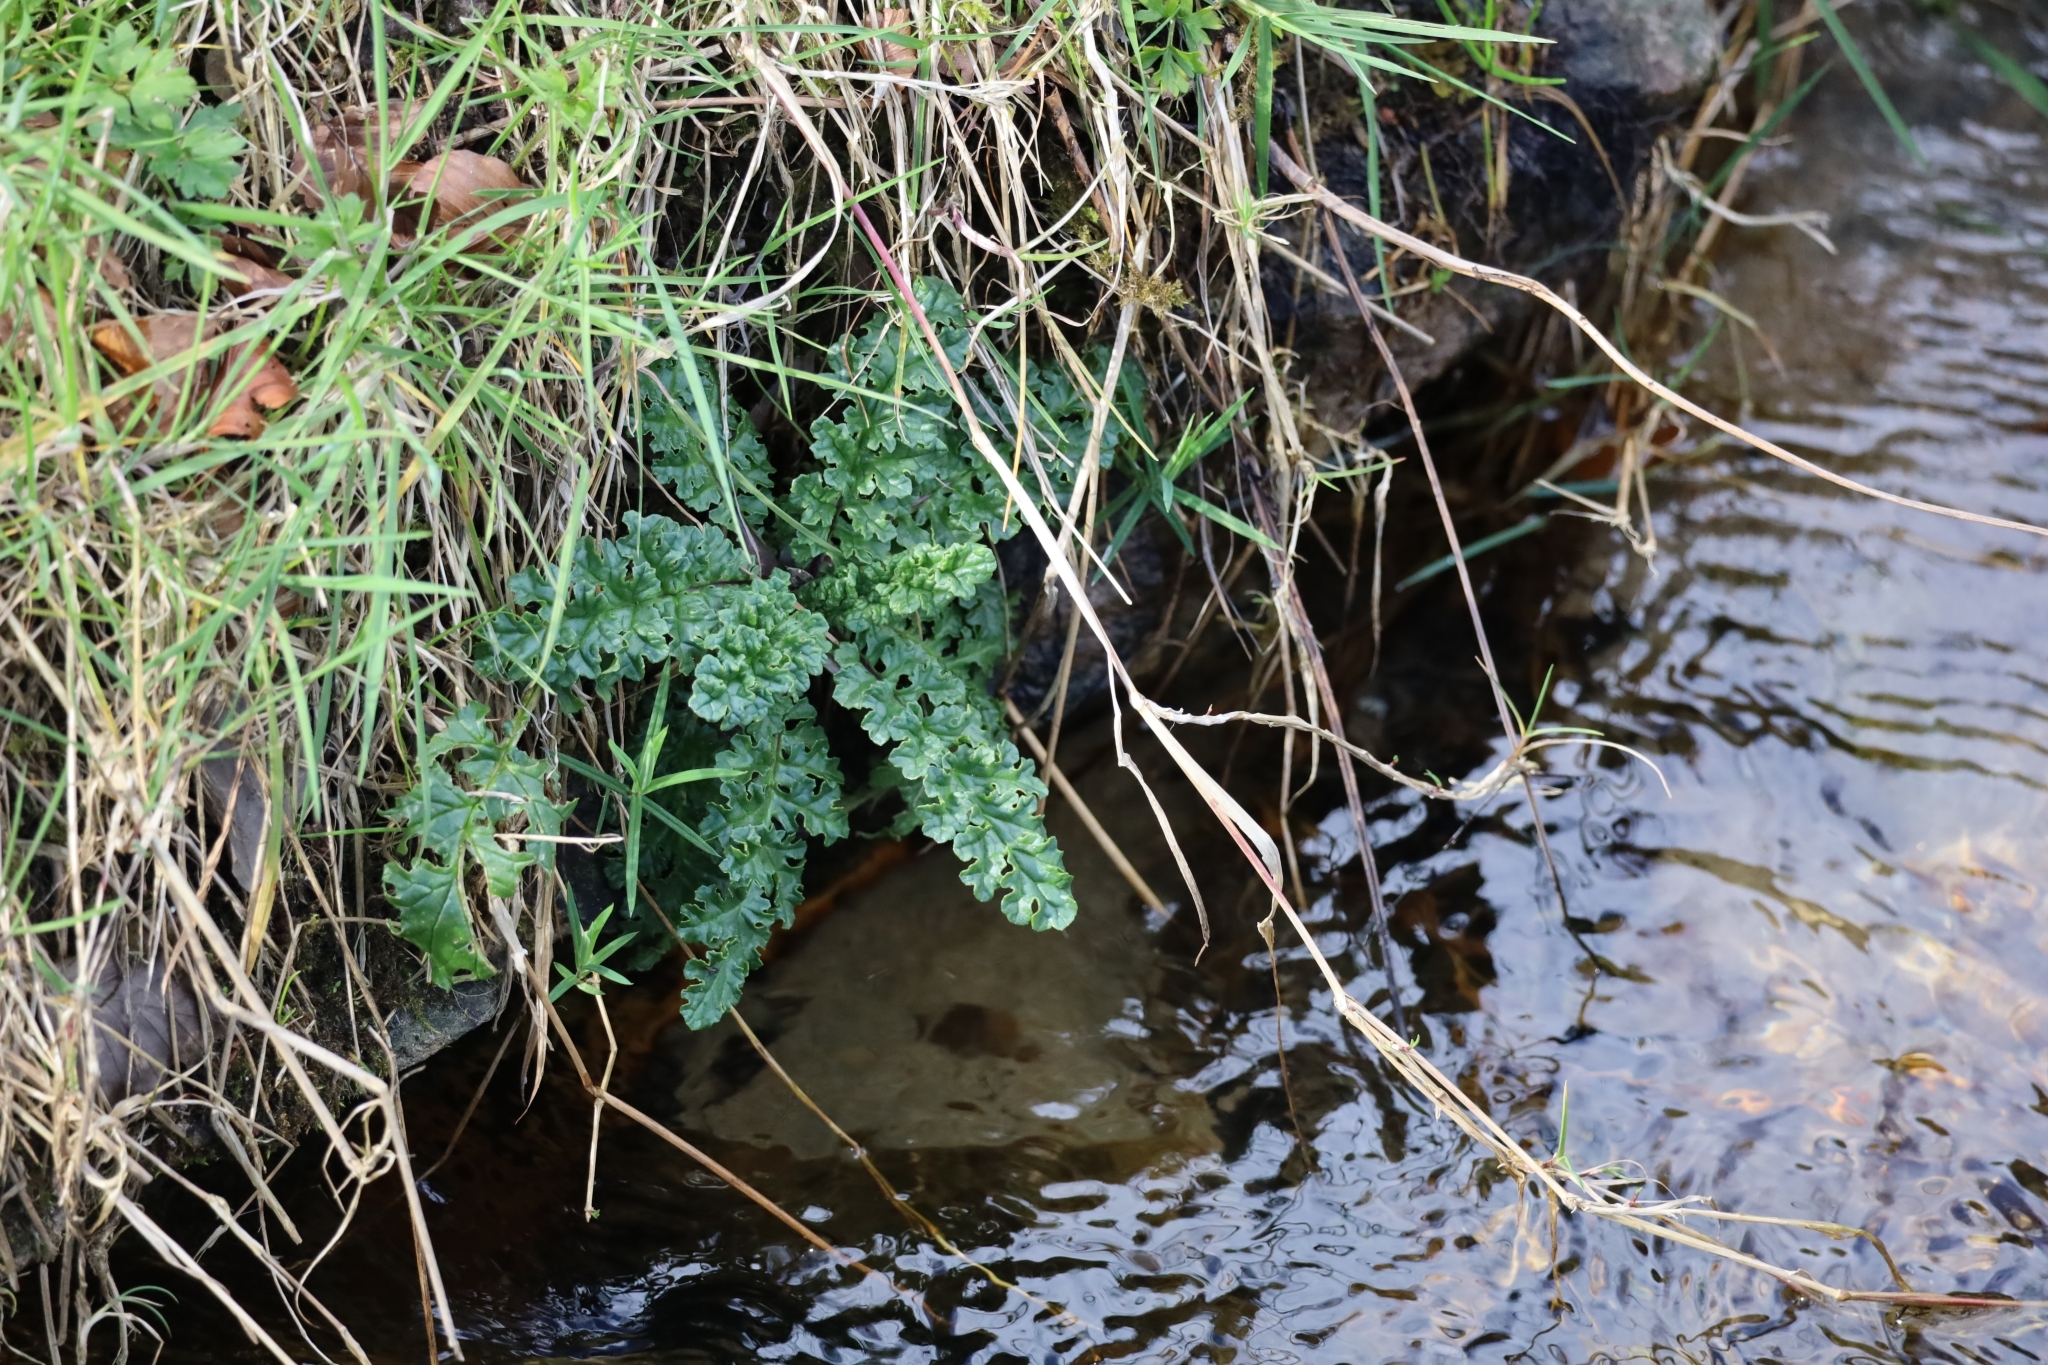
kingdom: Plantae
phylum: Tracheophyta
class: Magnoliopsida
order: Asterales
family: Asteraceae
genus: Jacobaea
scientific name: Jacobaea vulgaris
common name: Stinking willie
